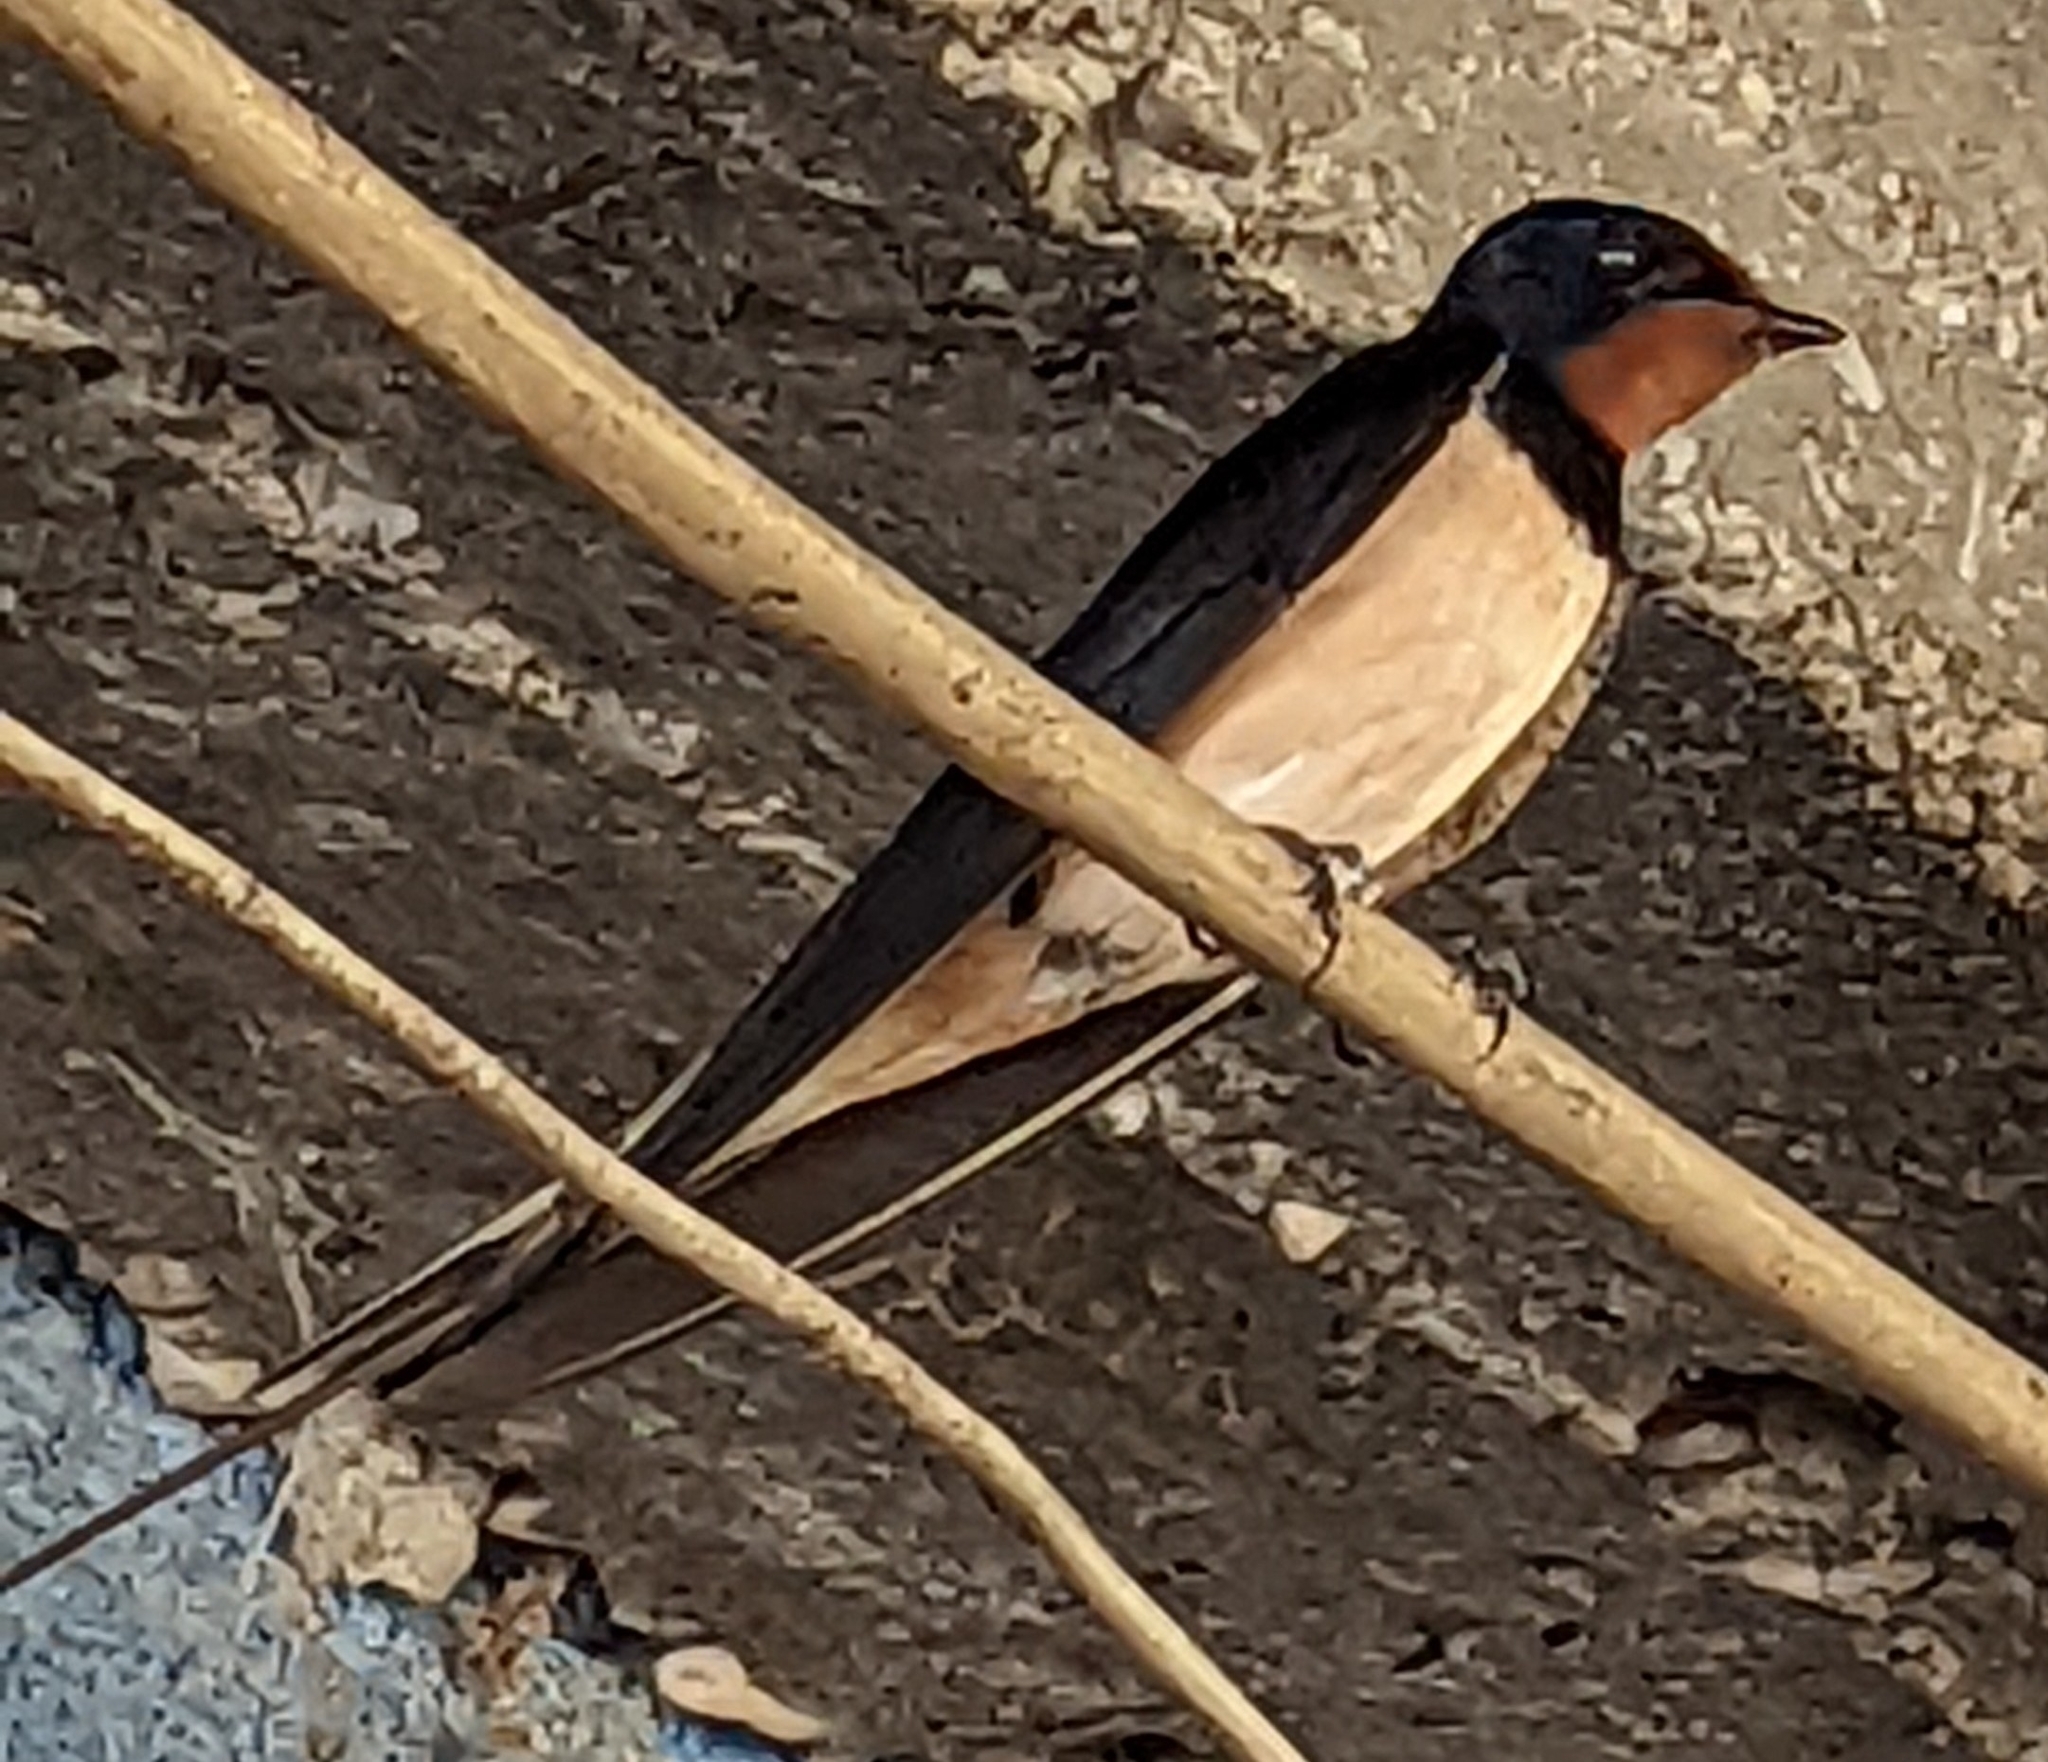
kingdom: Animalia
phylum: Chordata
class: Aves
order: Passeriformes
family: Hirundinidae
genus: Hirundo
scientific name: Hirundo rustica
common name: Barn swallow
